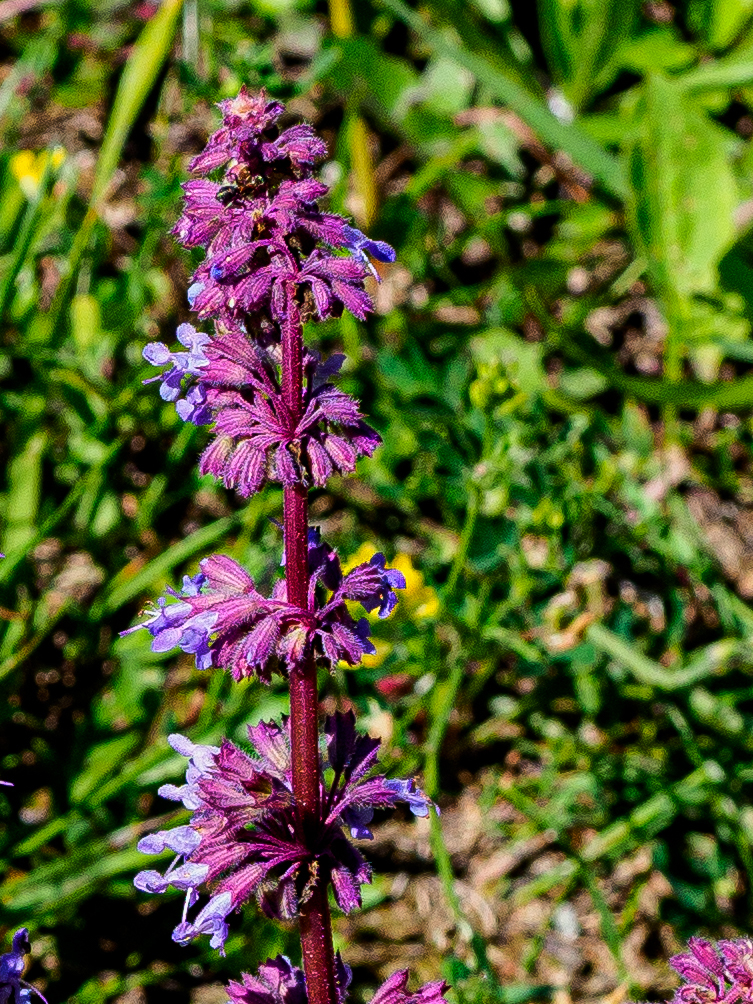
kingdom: Plantae
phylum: Tracheophyta
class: Magnoliopsida
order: Lamiales
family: Lamiaceae
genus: Salvia
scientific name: Salvia verticillata
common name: Whorled clary
